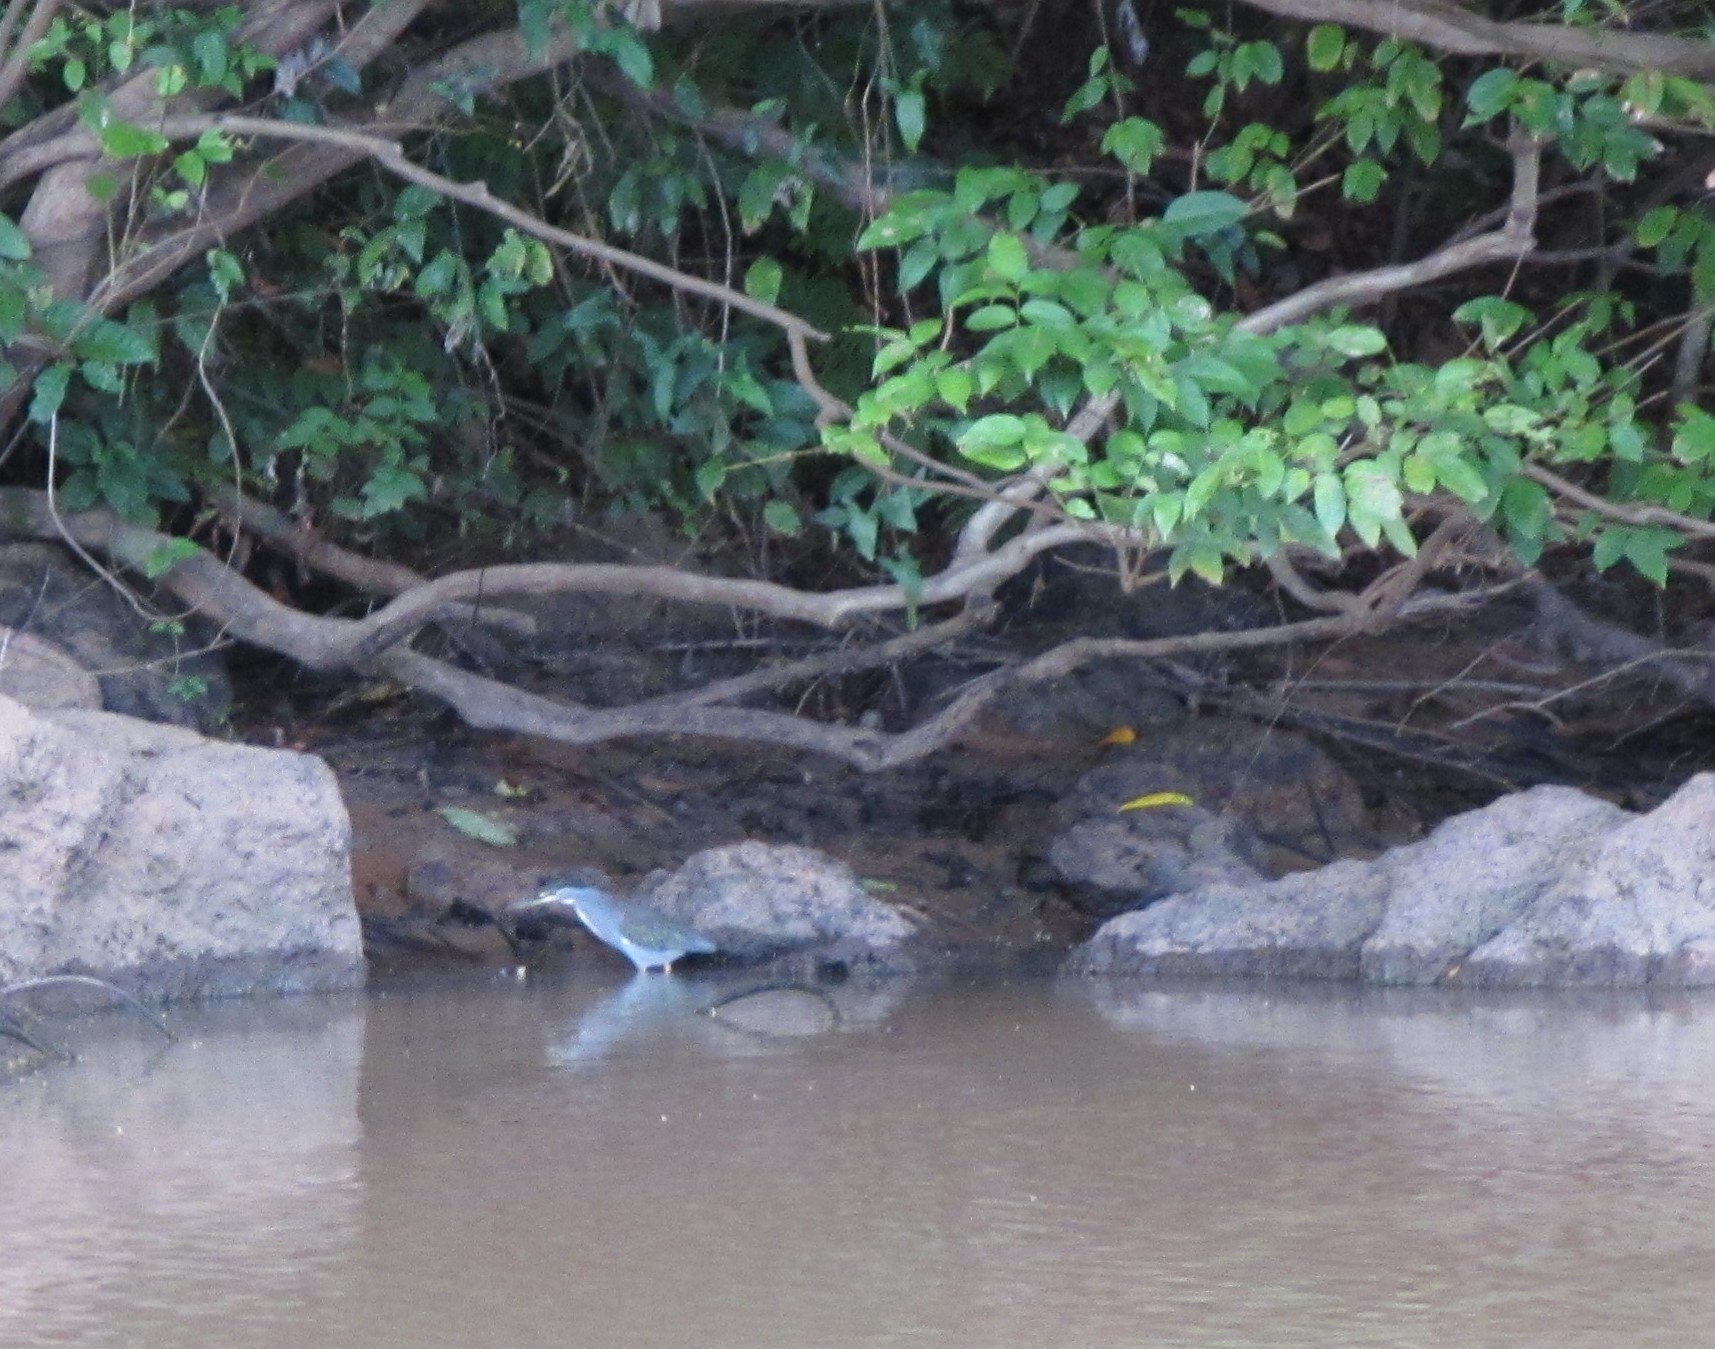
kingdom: Animalia
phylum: Chordata
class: Aves
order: Pelecaniformes
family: Ardeidae
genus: Butorides
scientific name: Butorides striata
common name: Striated heron
